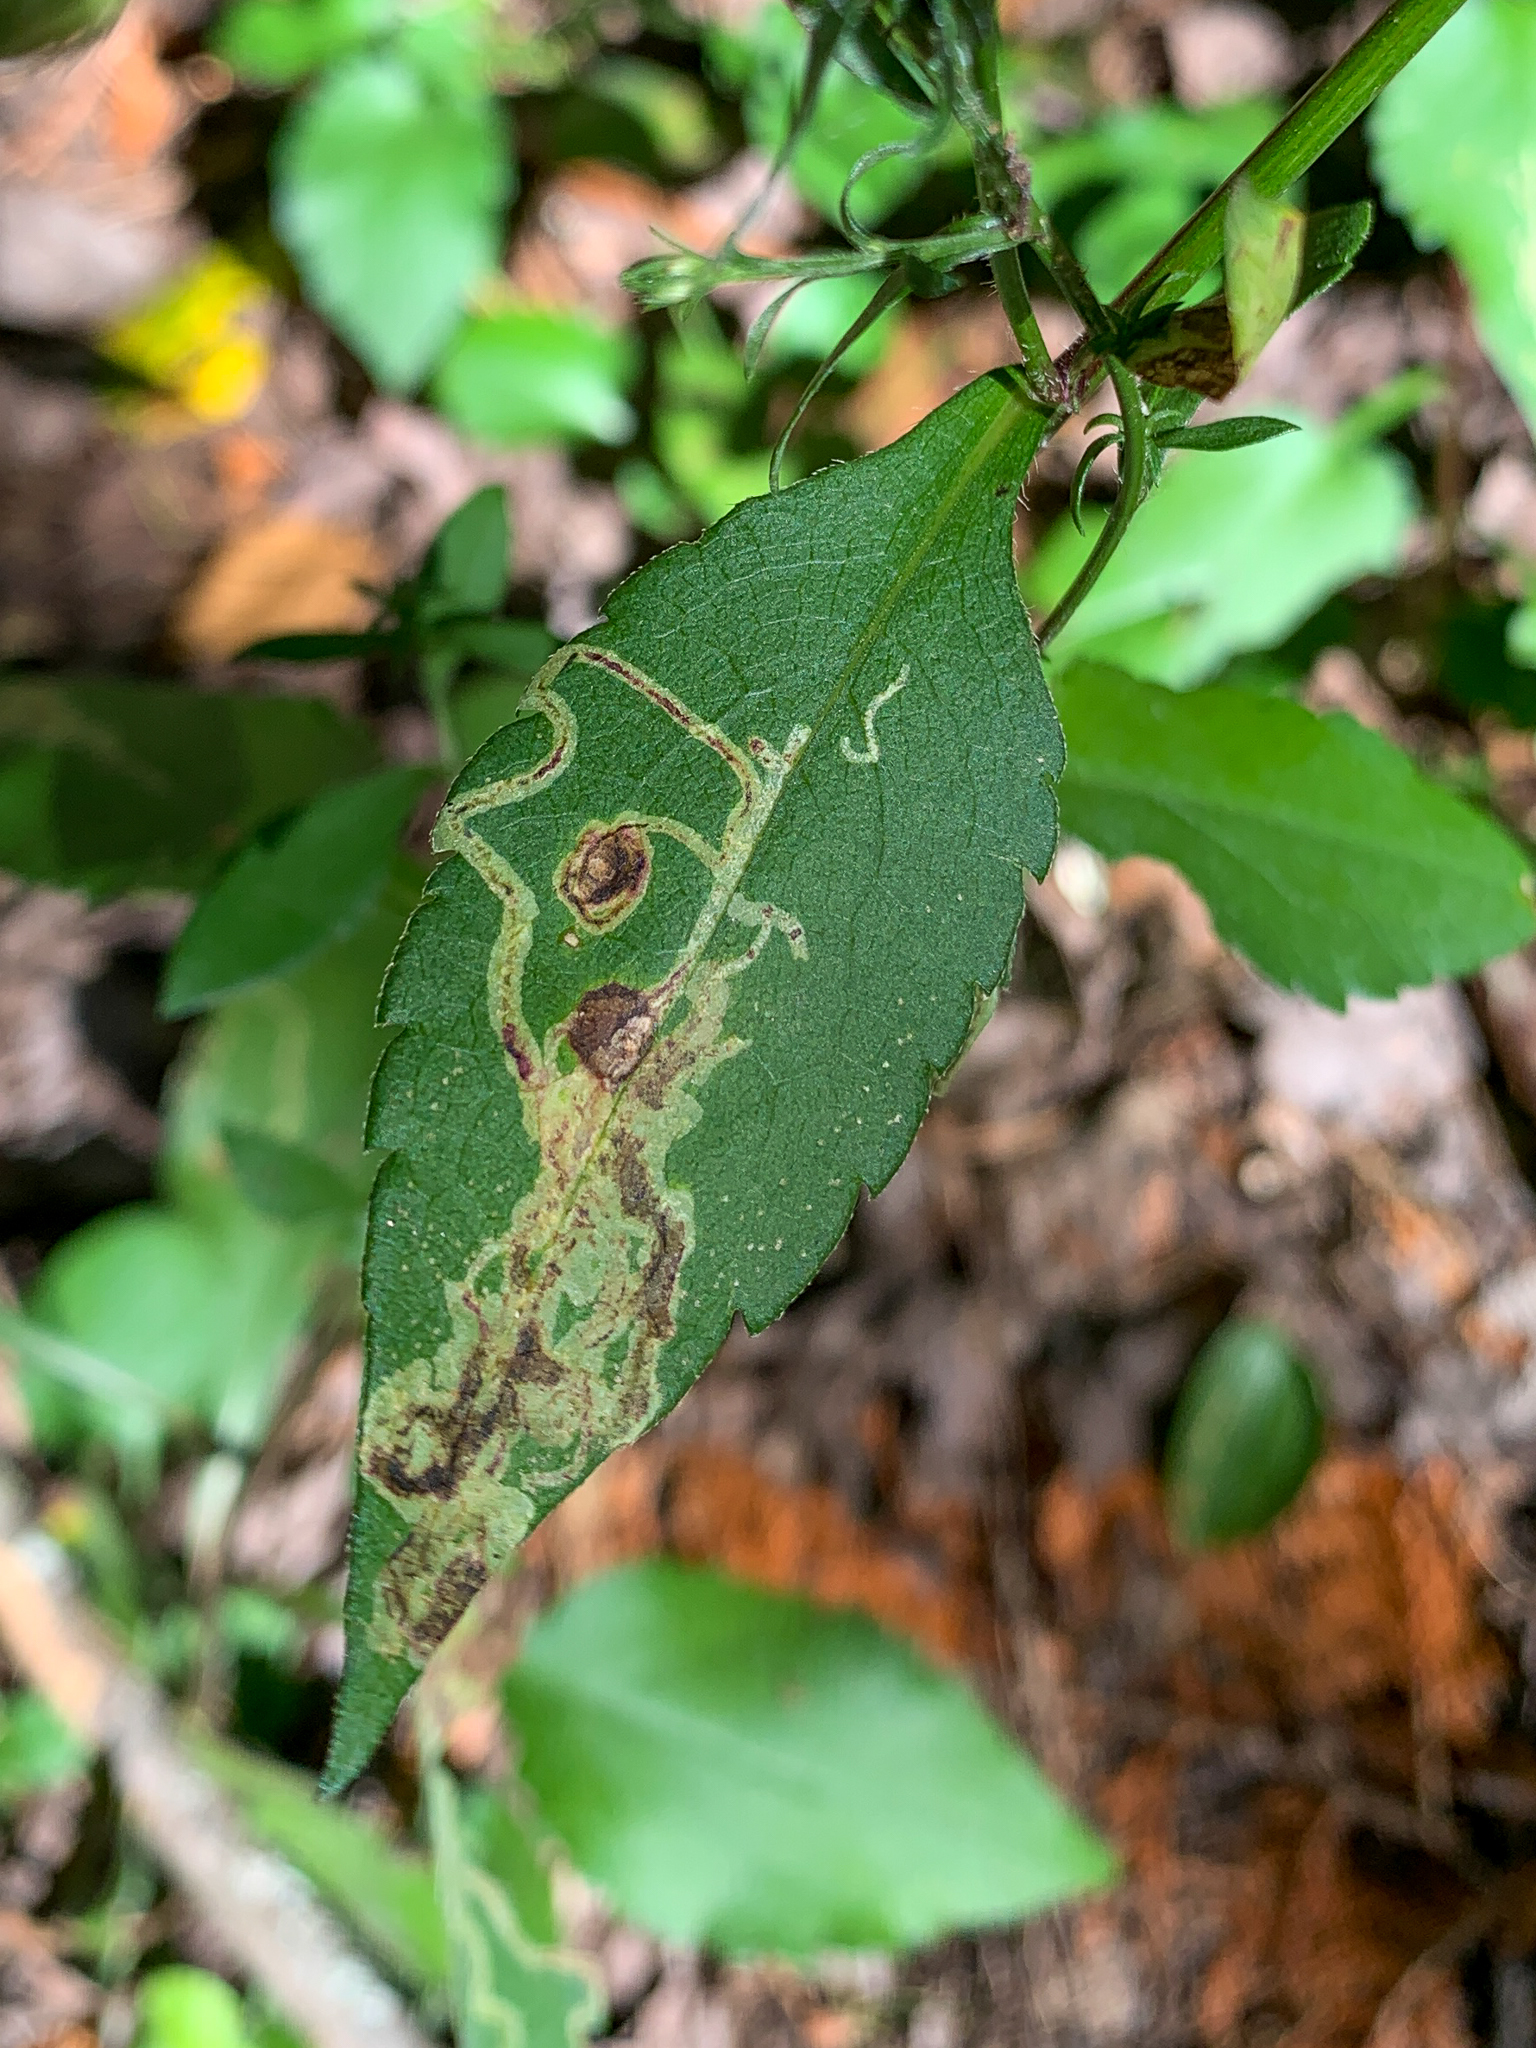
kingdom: Animalia
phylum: Arthropoda
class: Insecta
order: Diptera
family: Agromyzidae
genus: Liriomyza
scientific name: Liriomyza eupatorii
